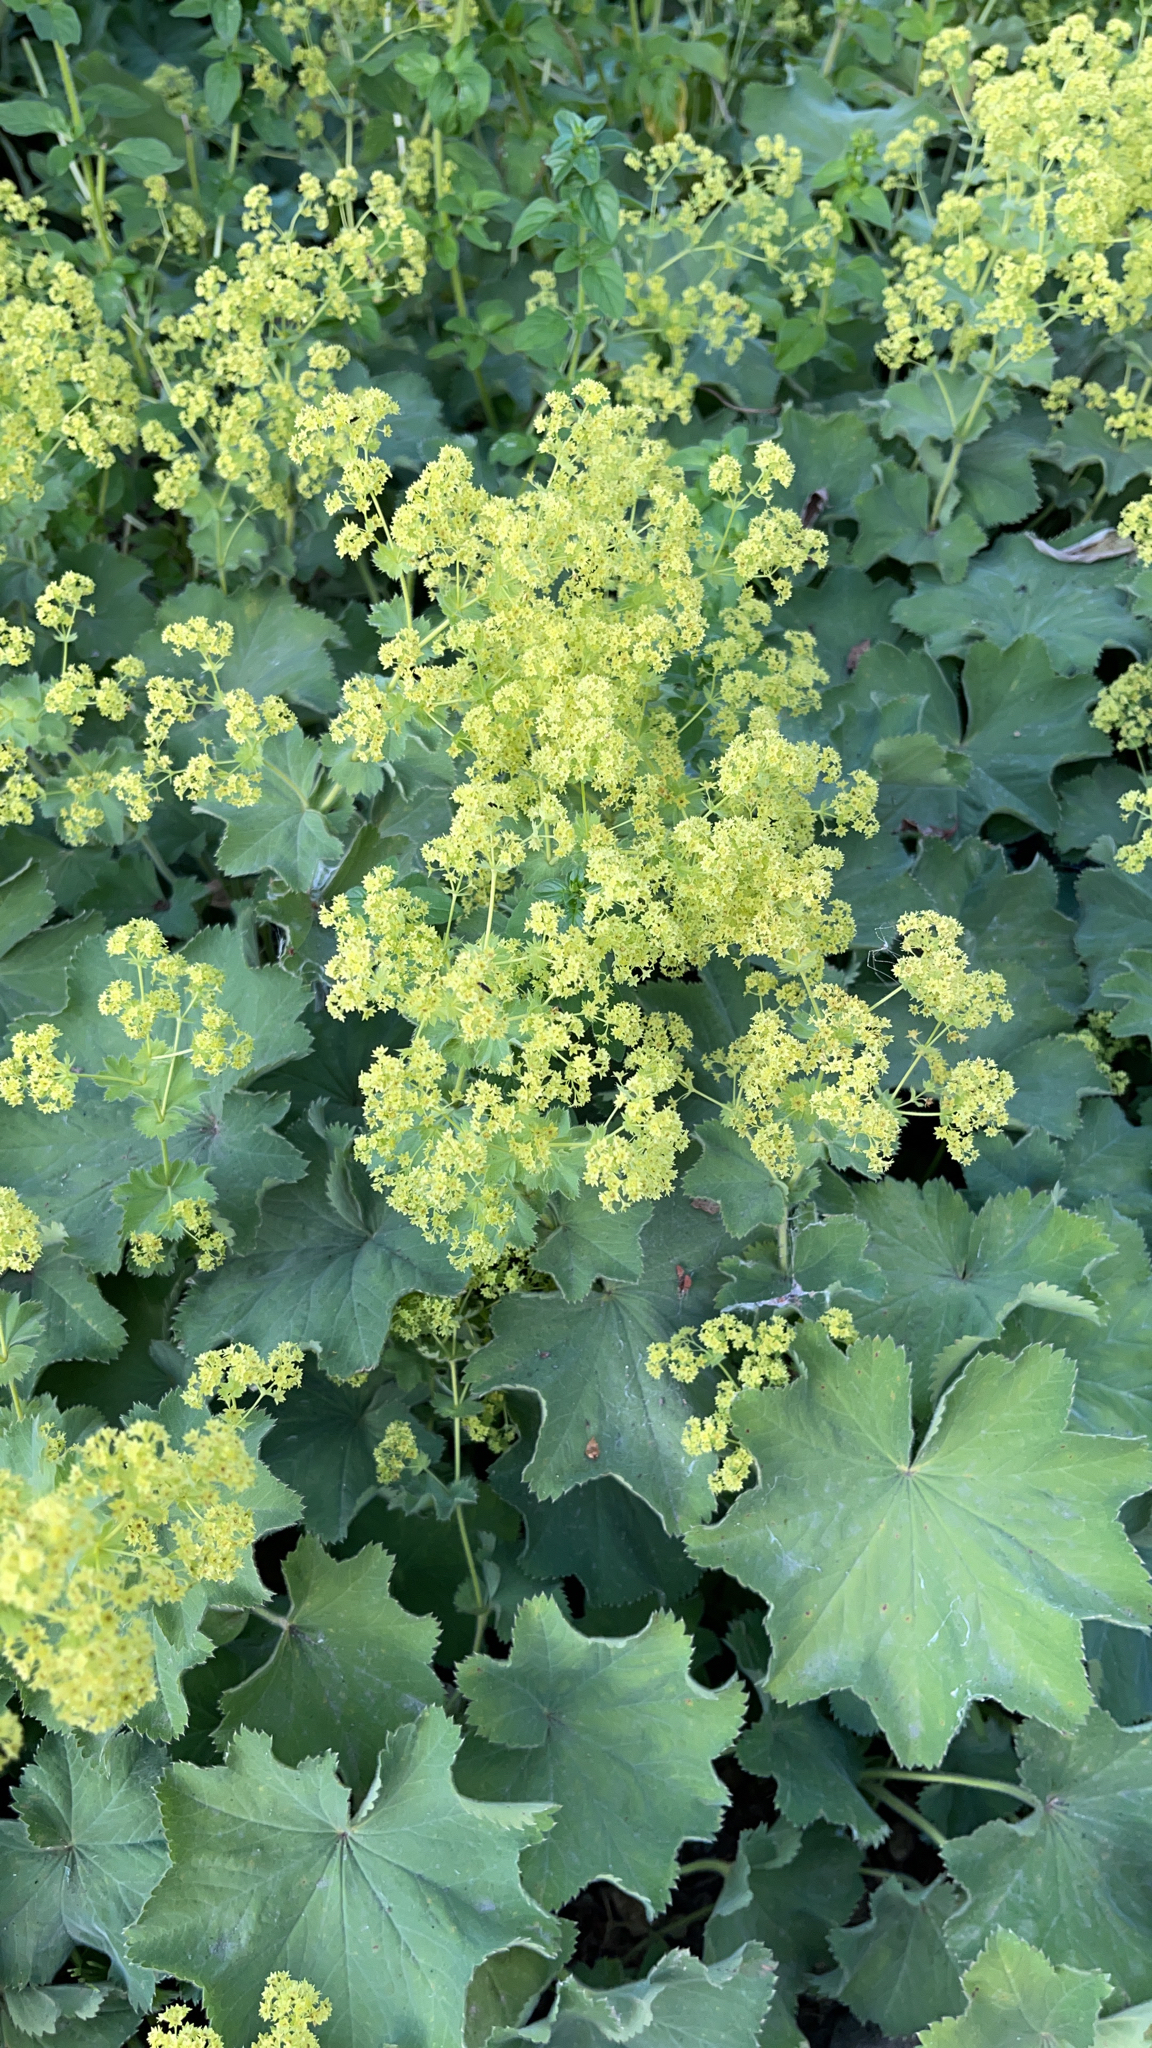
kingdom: Plantae
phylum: Tracheophyta
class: Magnoliopsida
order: Rosales
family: Rosaceae
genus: Alchemilla
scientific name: Alchemilla mollis
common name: Lady's-mantle
